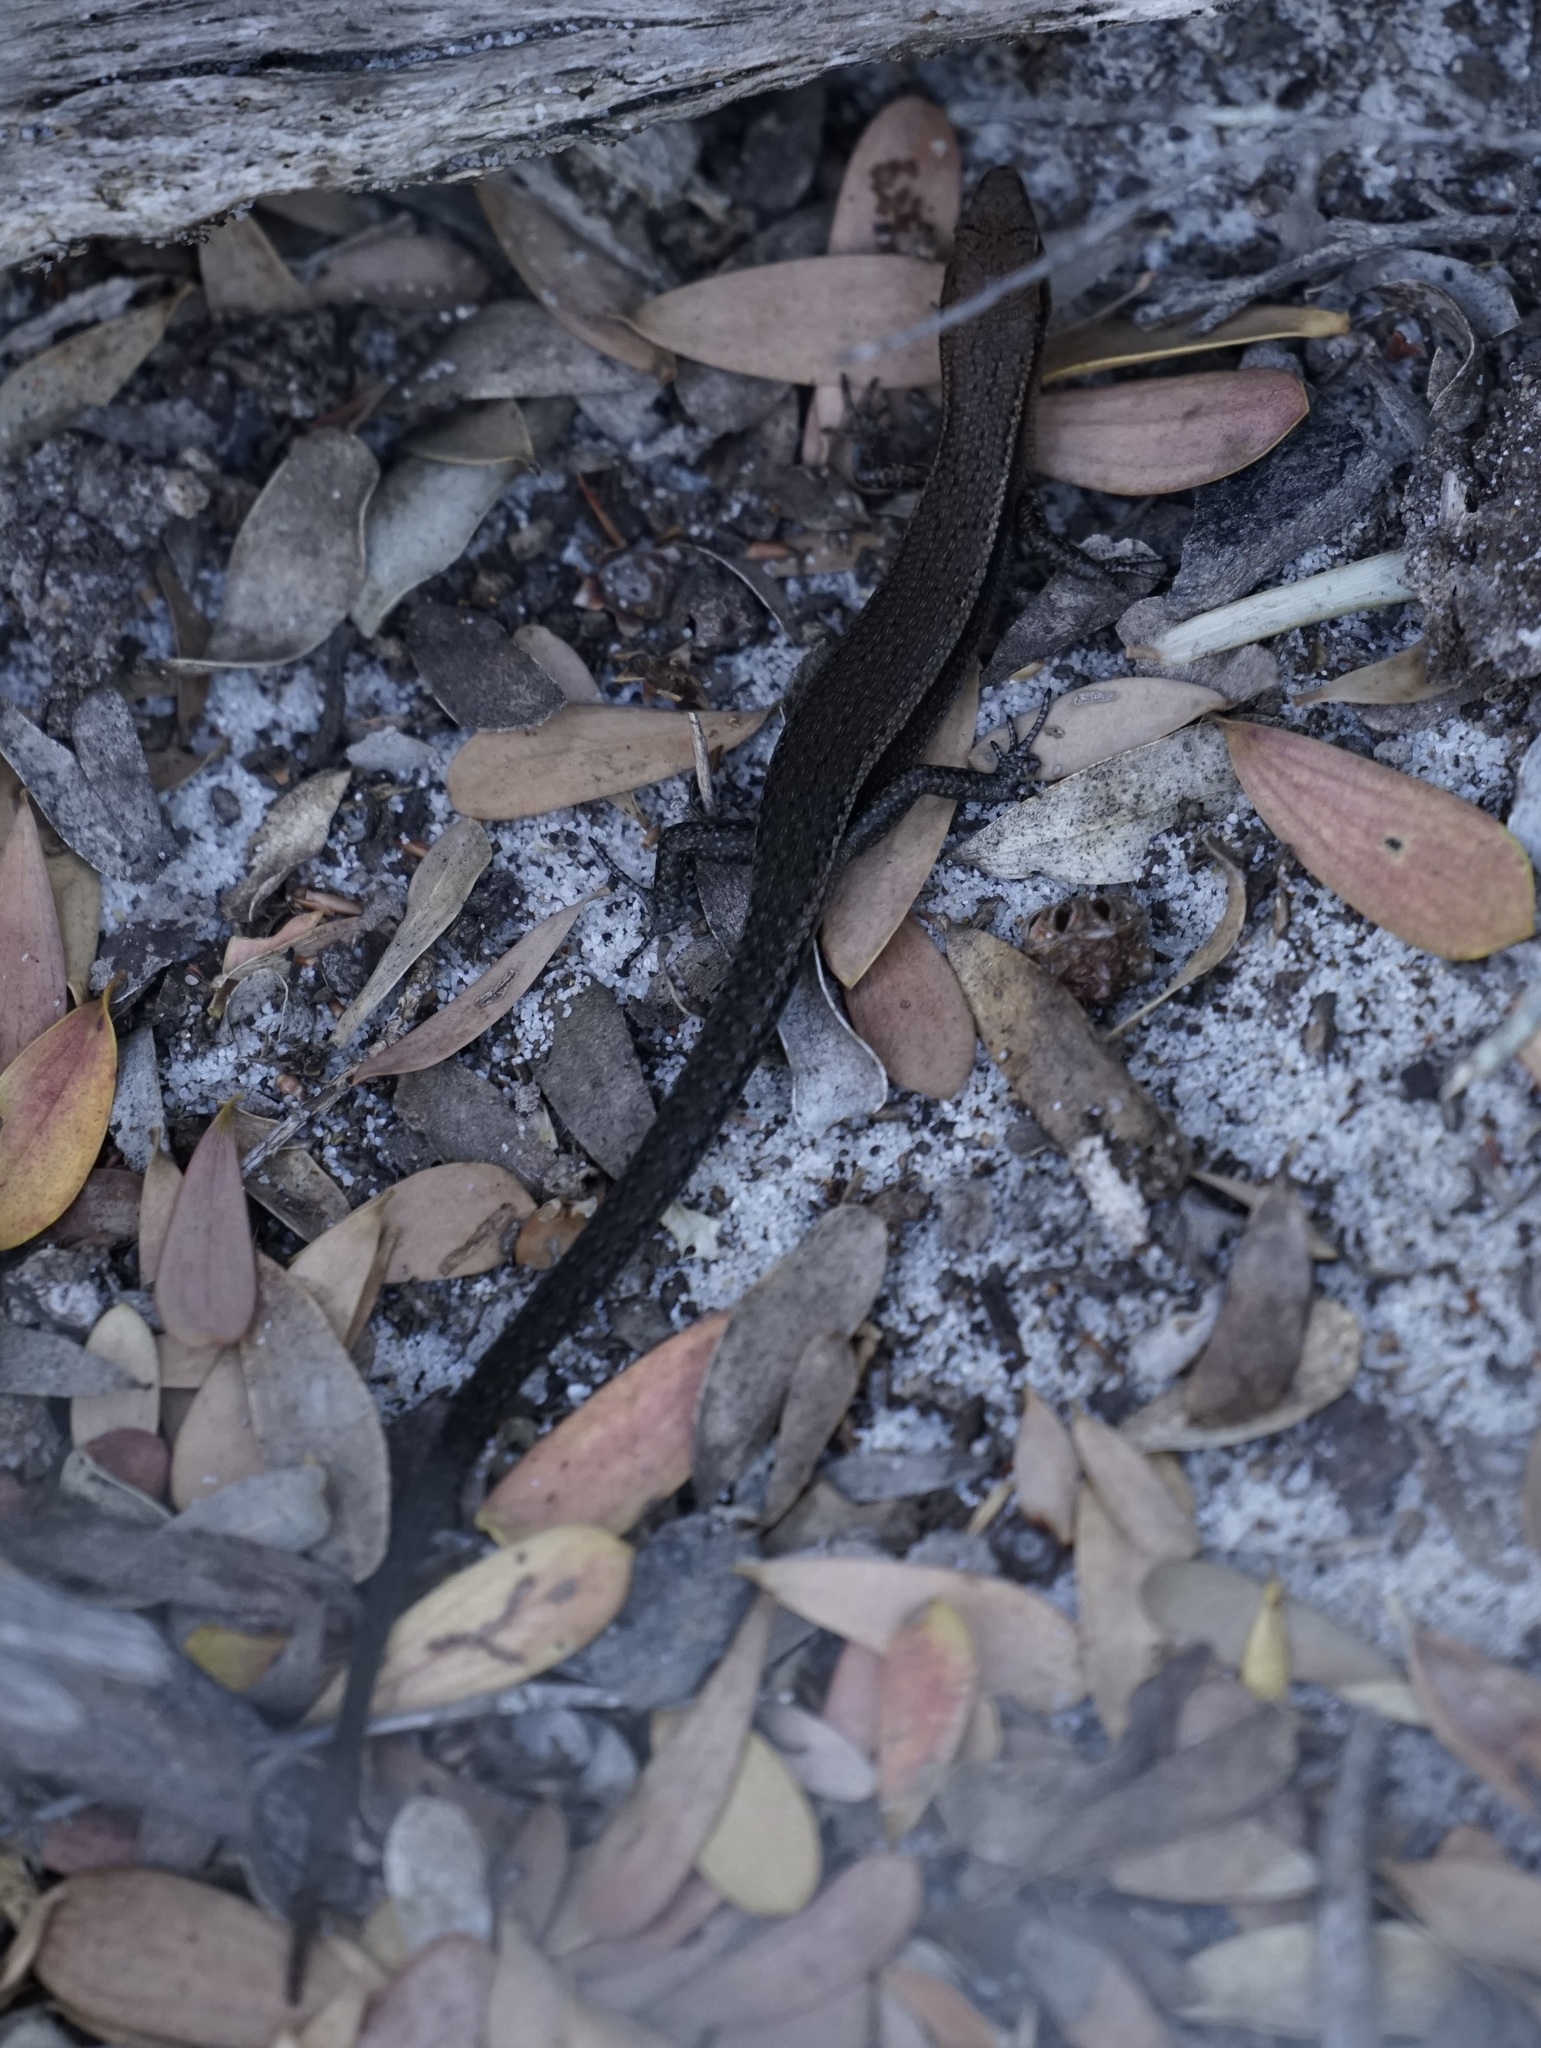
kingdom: Animalia
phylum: Chordata
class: Squamata
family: Scincidae
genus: Lampropholis
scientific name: Lampropholis delicata
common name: Plague skink
